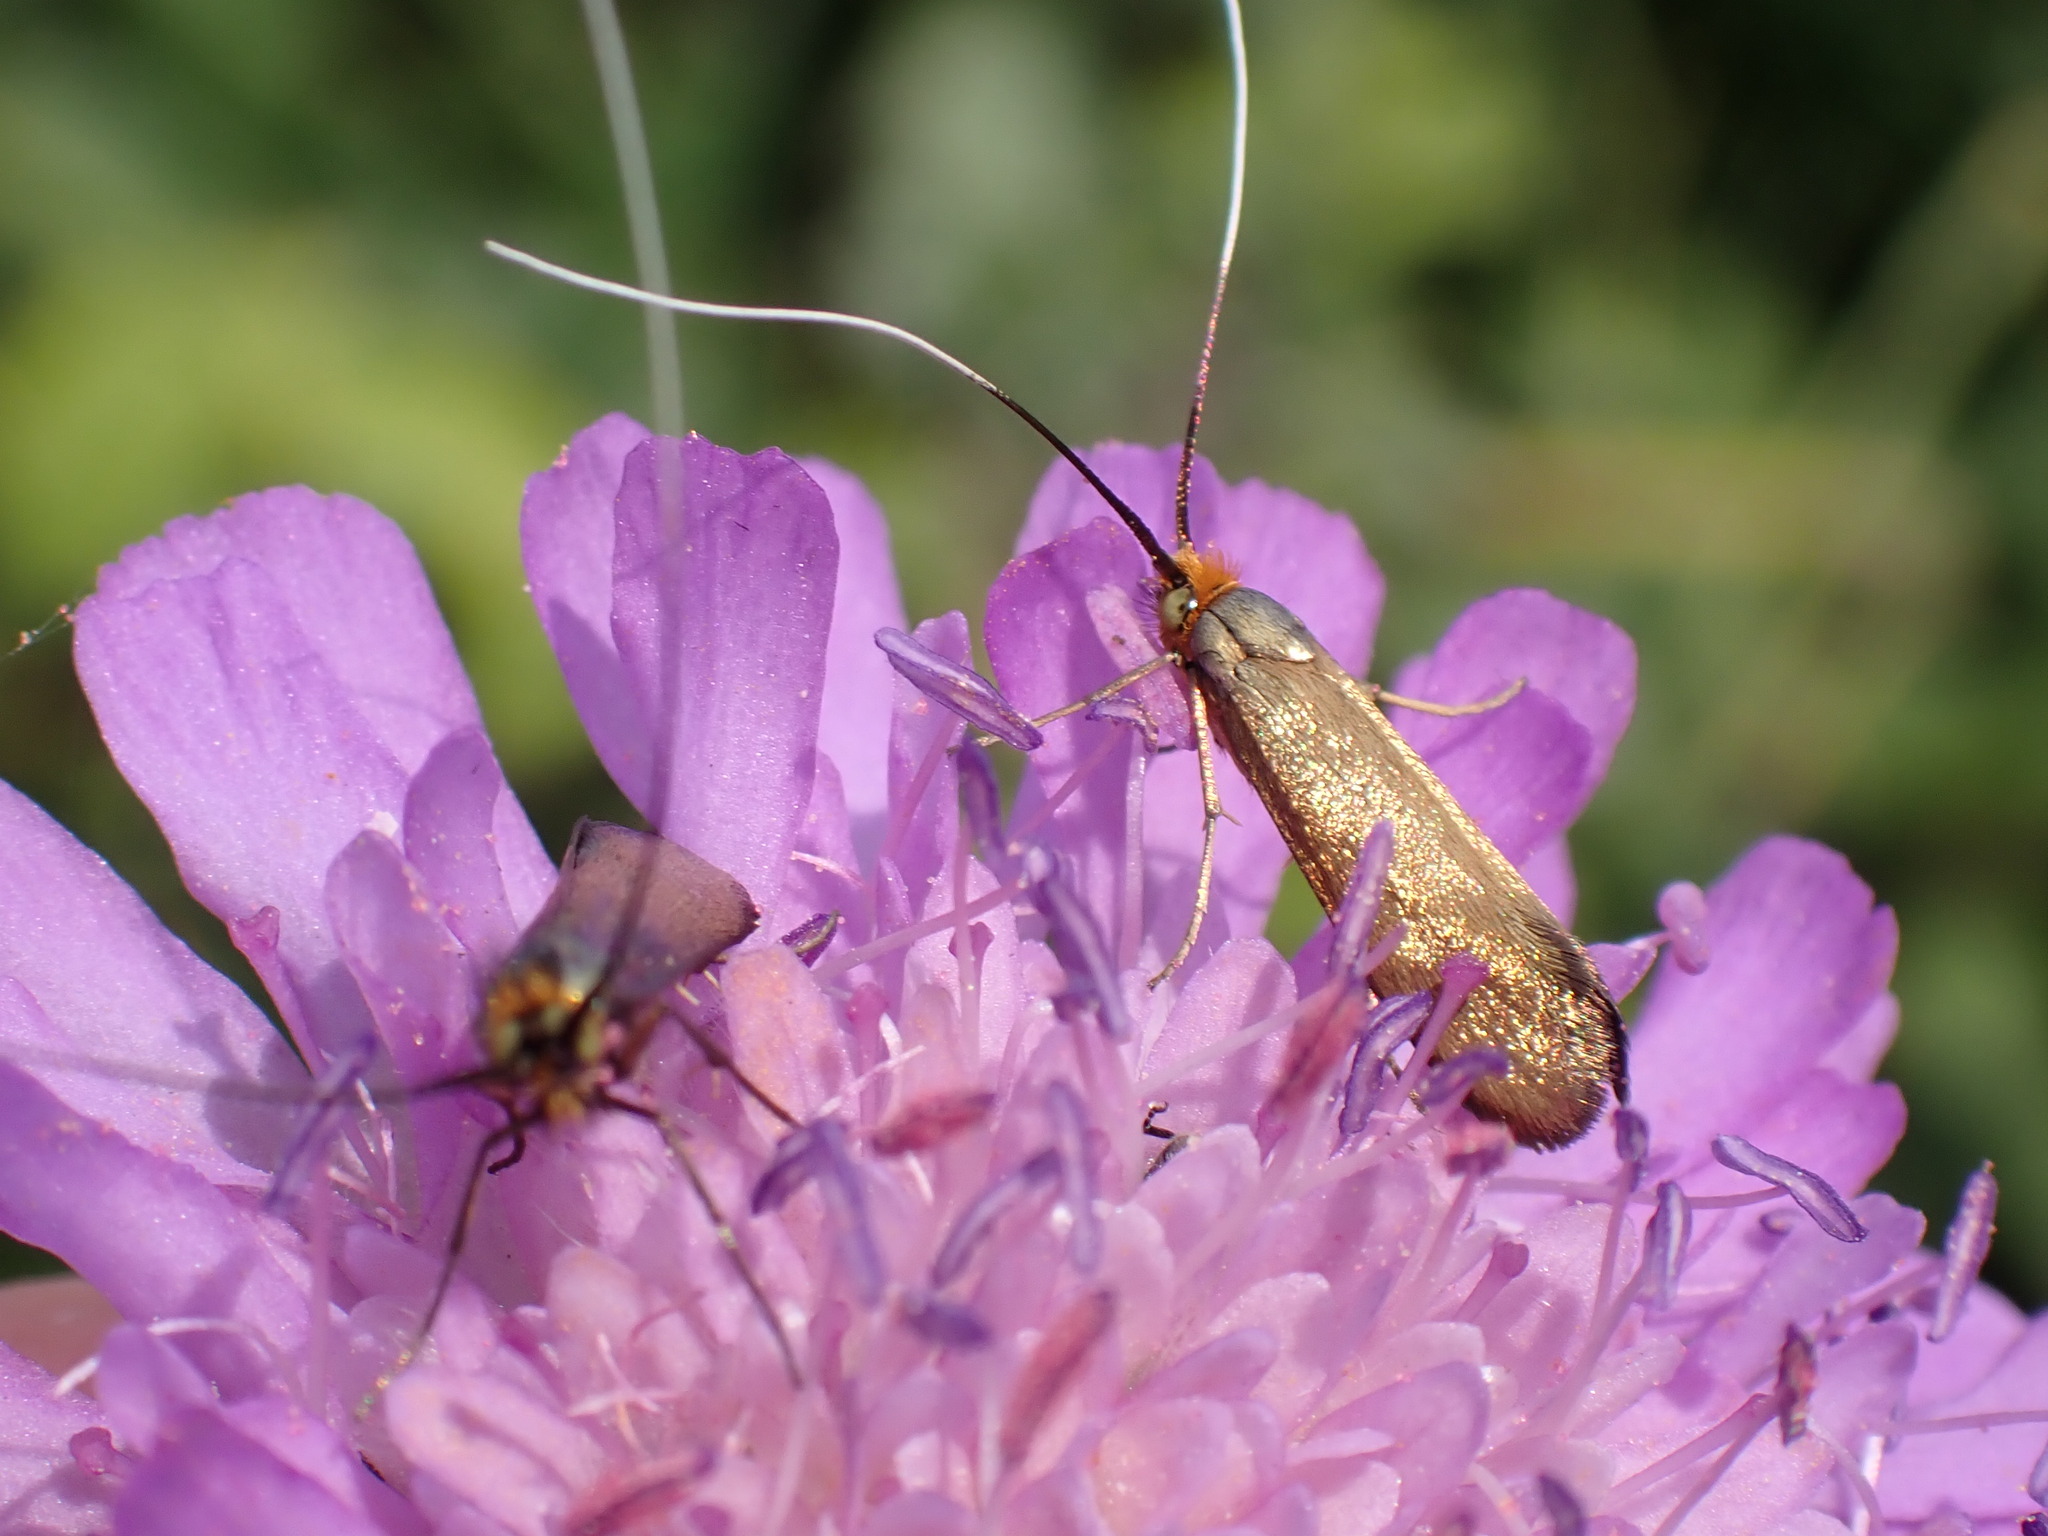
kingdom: Animalia
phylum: Arthropoda
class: Insecta
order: Lepidoptera
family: Adelidae
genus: Nemophora
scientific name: Nemophora metallica
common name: Brassy long-horn
